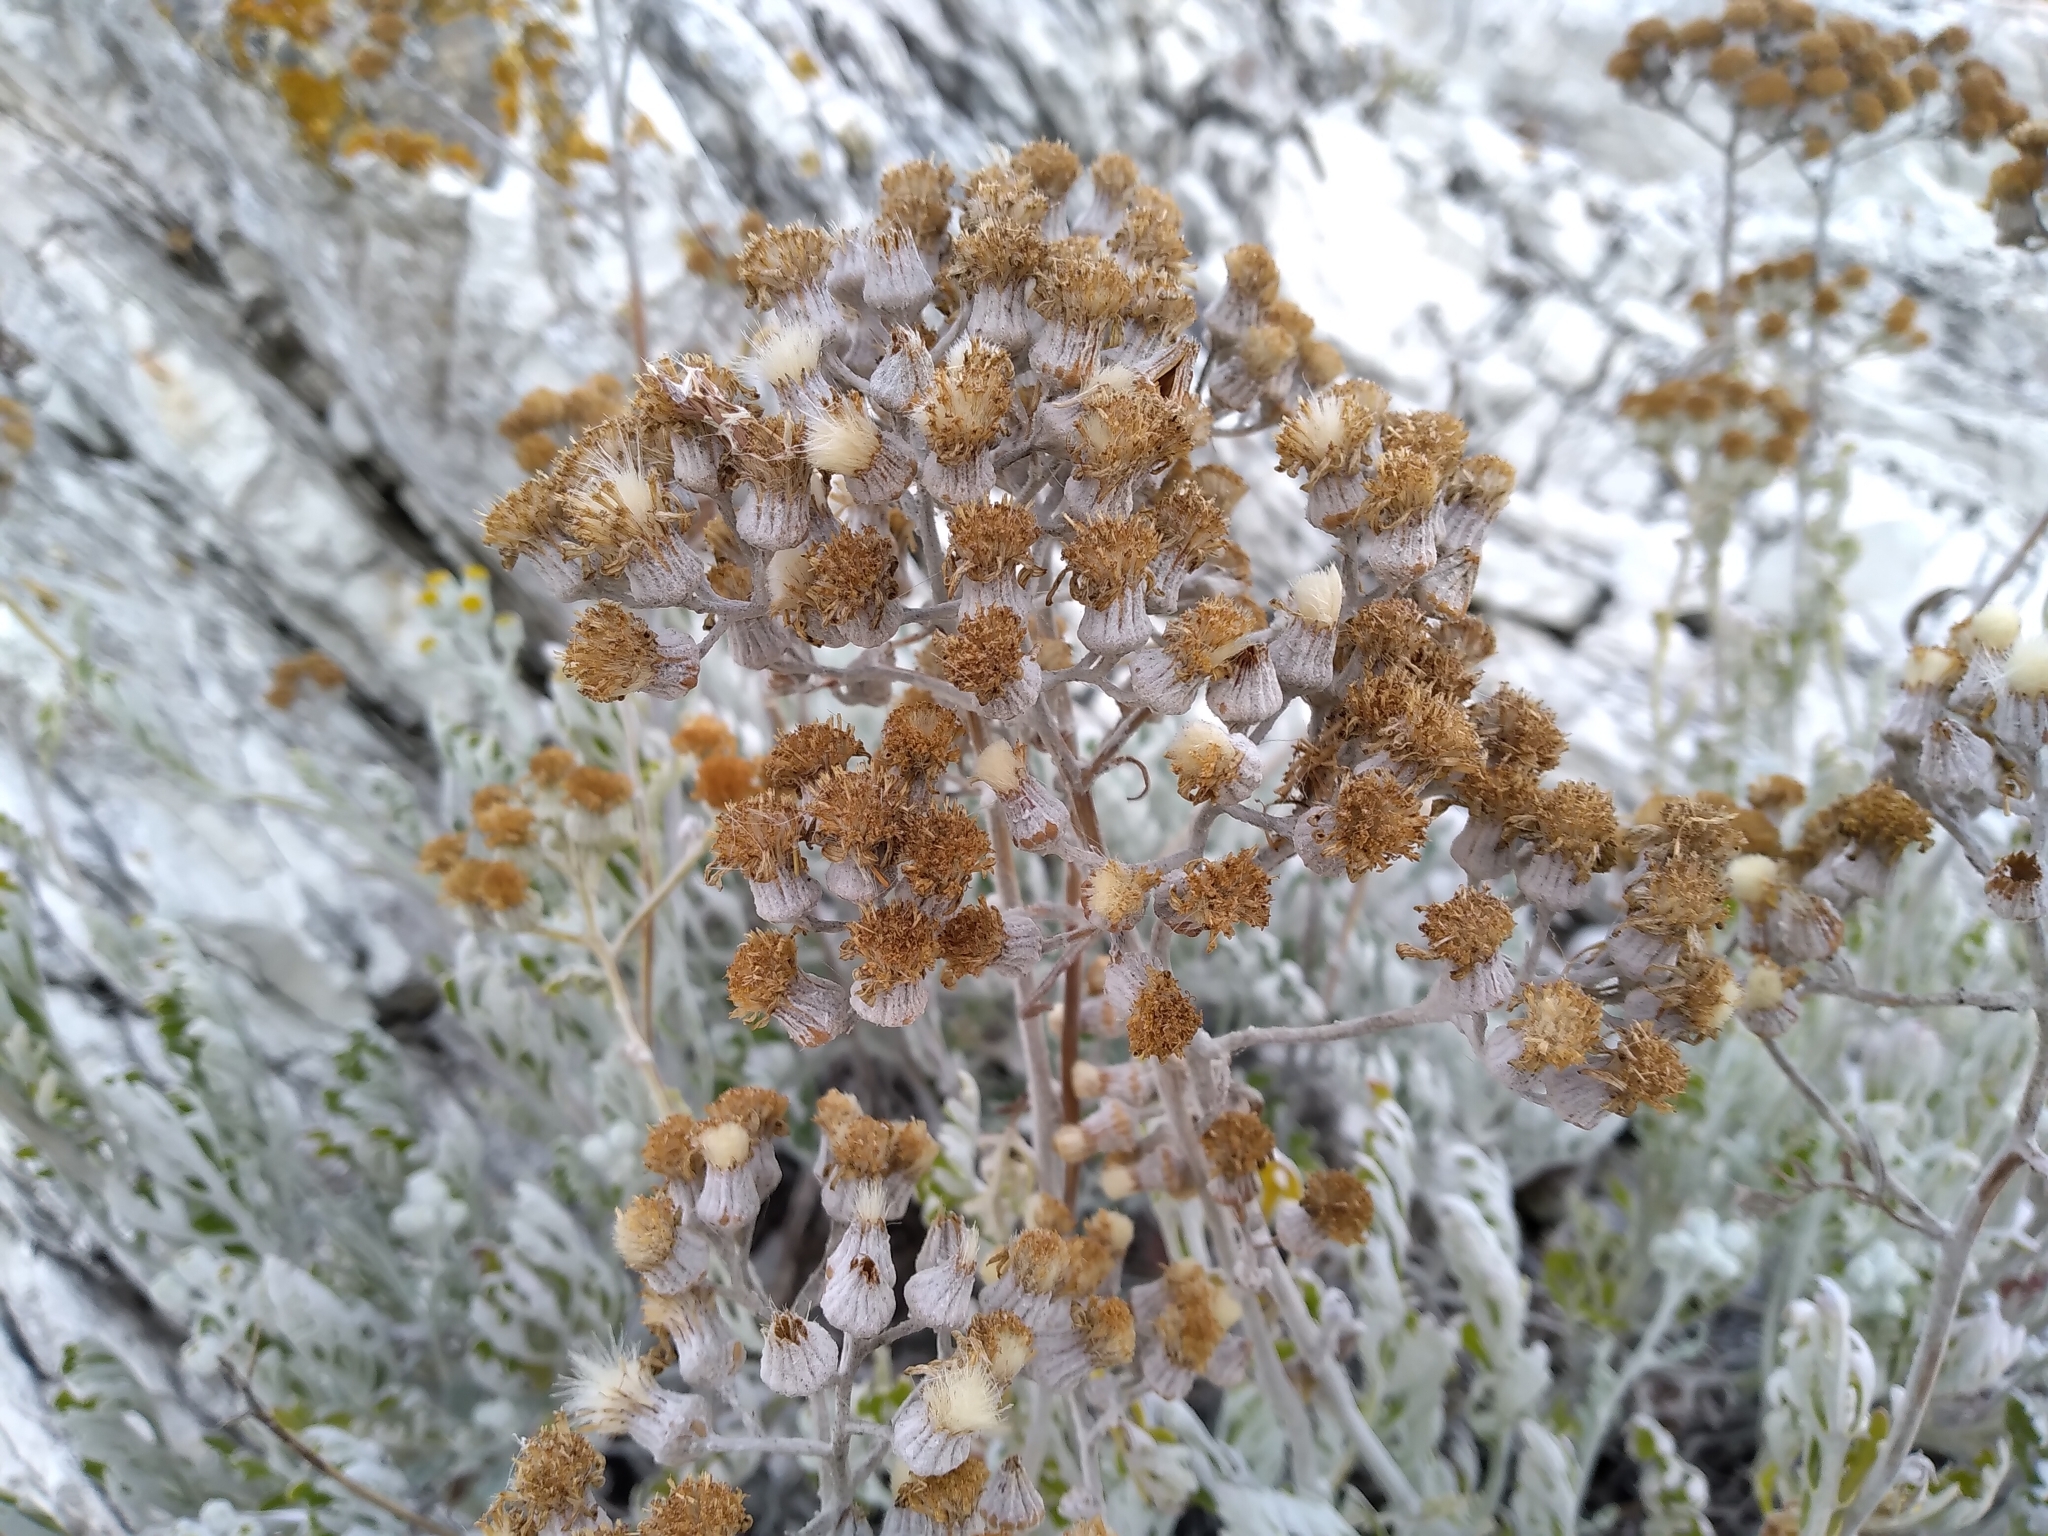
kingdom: Plantae
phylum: Tracheophyta
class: Magnoliopsida
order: Asterales
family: Asteraceae
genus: Jacobaea
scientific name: Jacobaea maritima
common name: Silver ragwort
